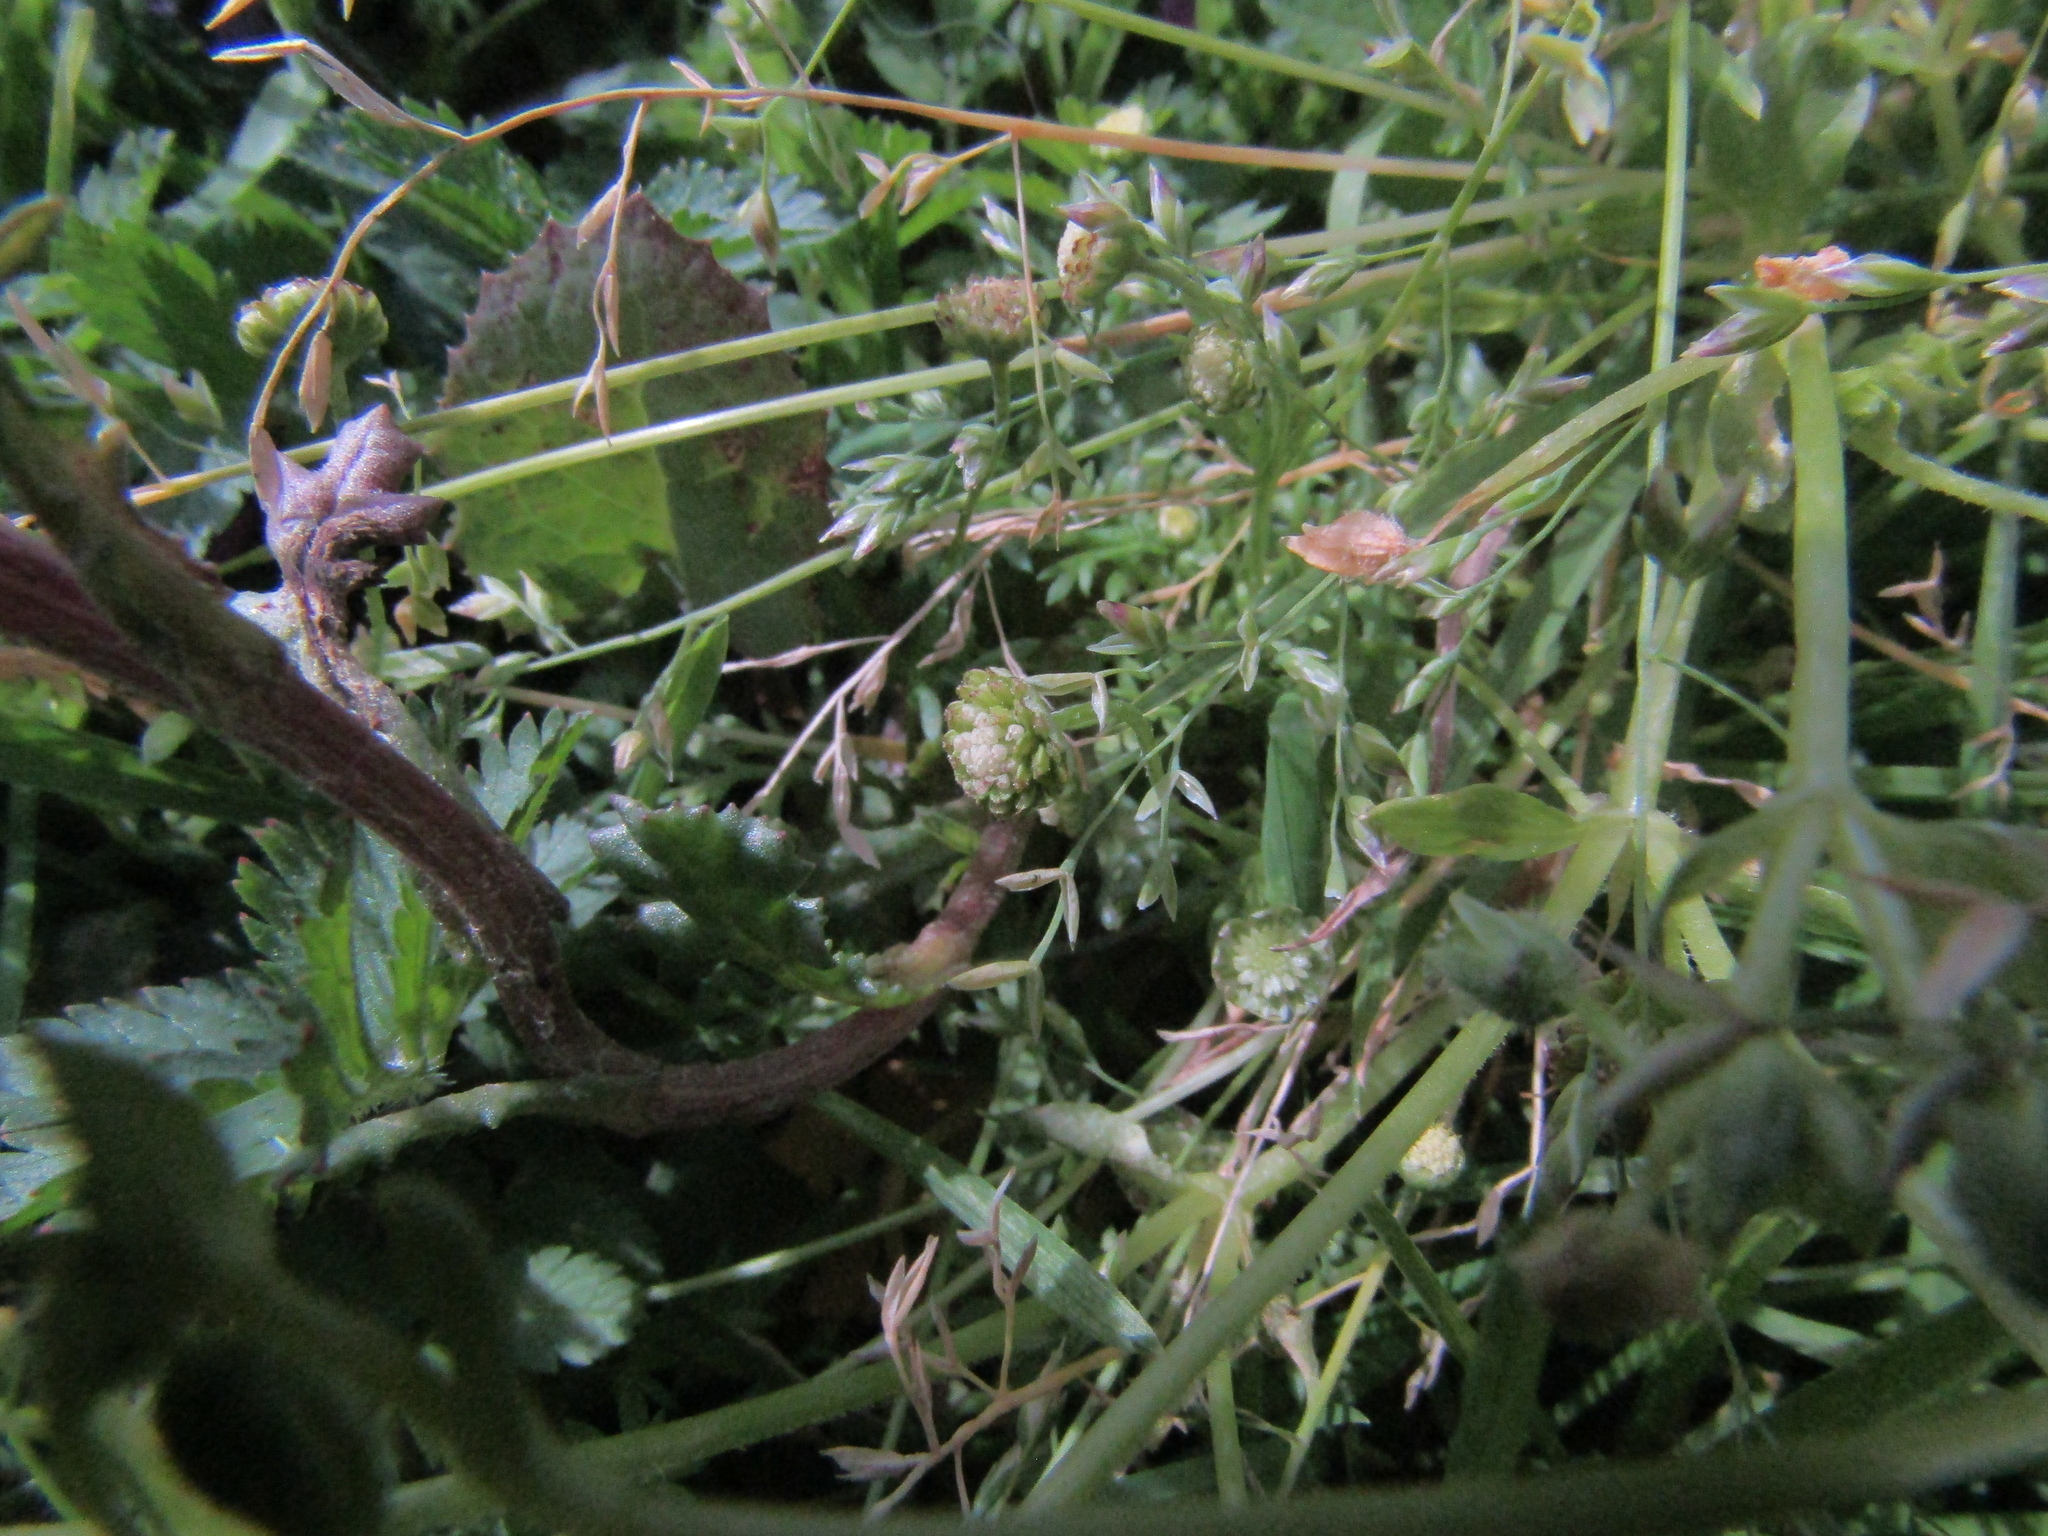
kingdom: Plantae
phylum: Tracheophyta
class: Magnoliopsida
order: Asterales
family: Asteraceae
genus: Cotula
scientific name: Cotula australis
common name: Australian waterbuttons
